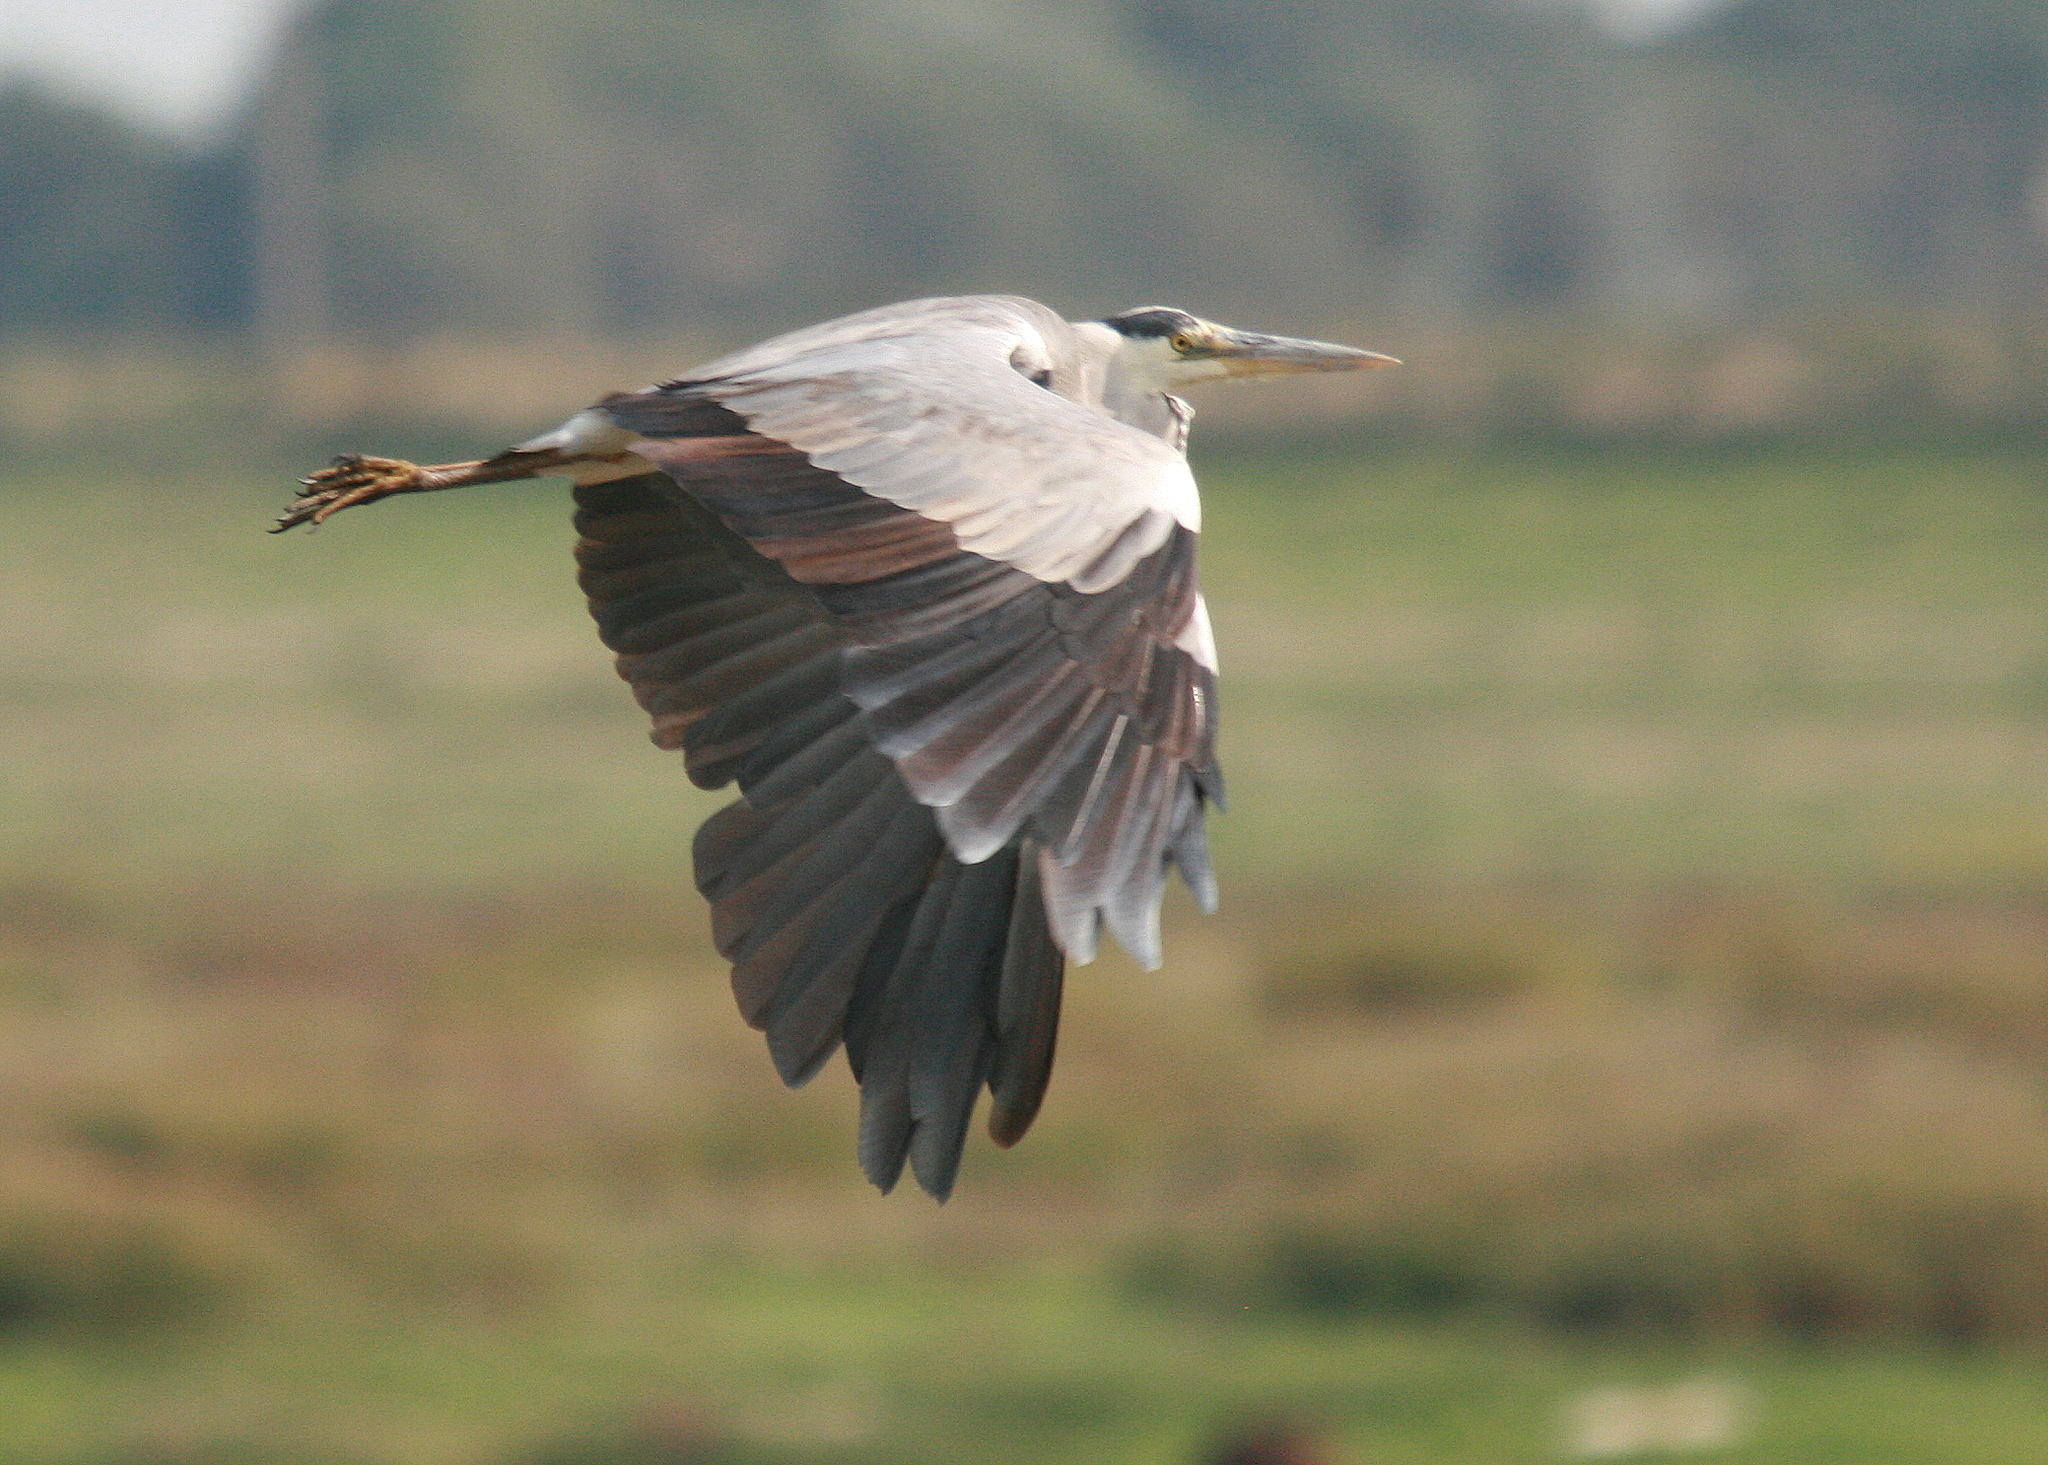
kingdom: Animalia
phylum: Chordata
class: Aves
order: Pelecaniformes
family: Ardeidae
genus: Ardea
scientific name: Ardea cinerea
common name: Grey heron
